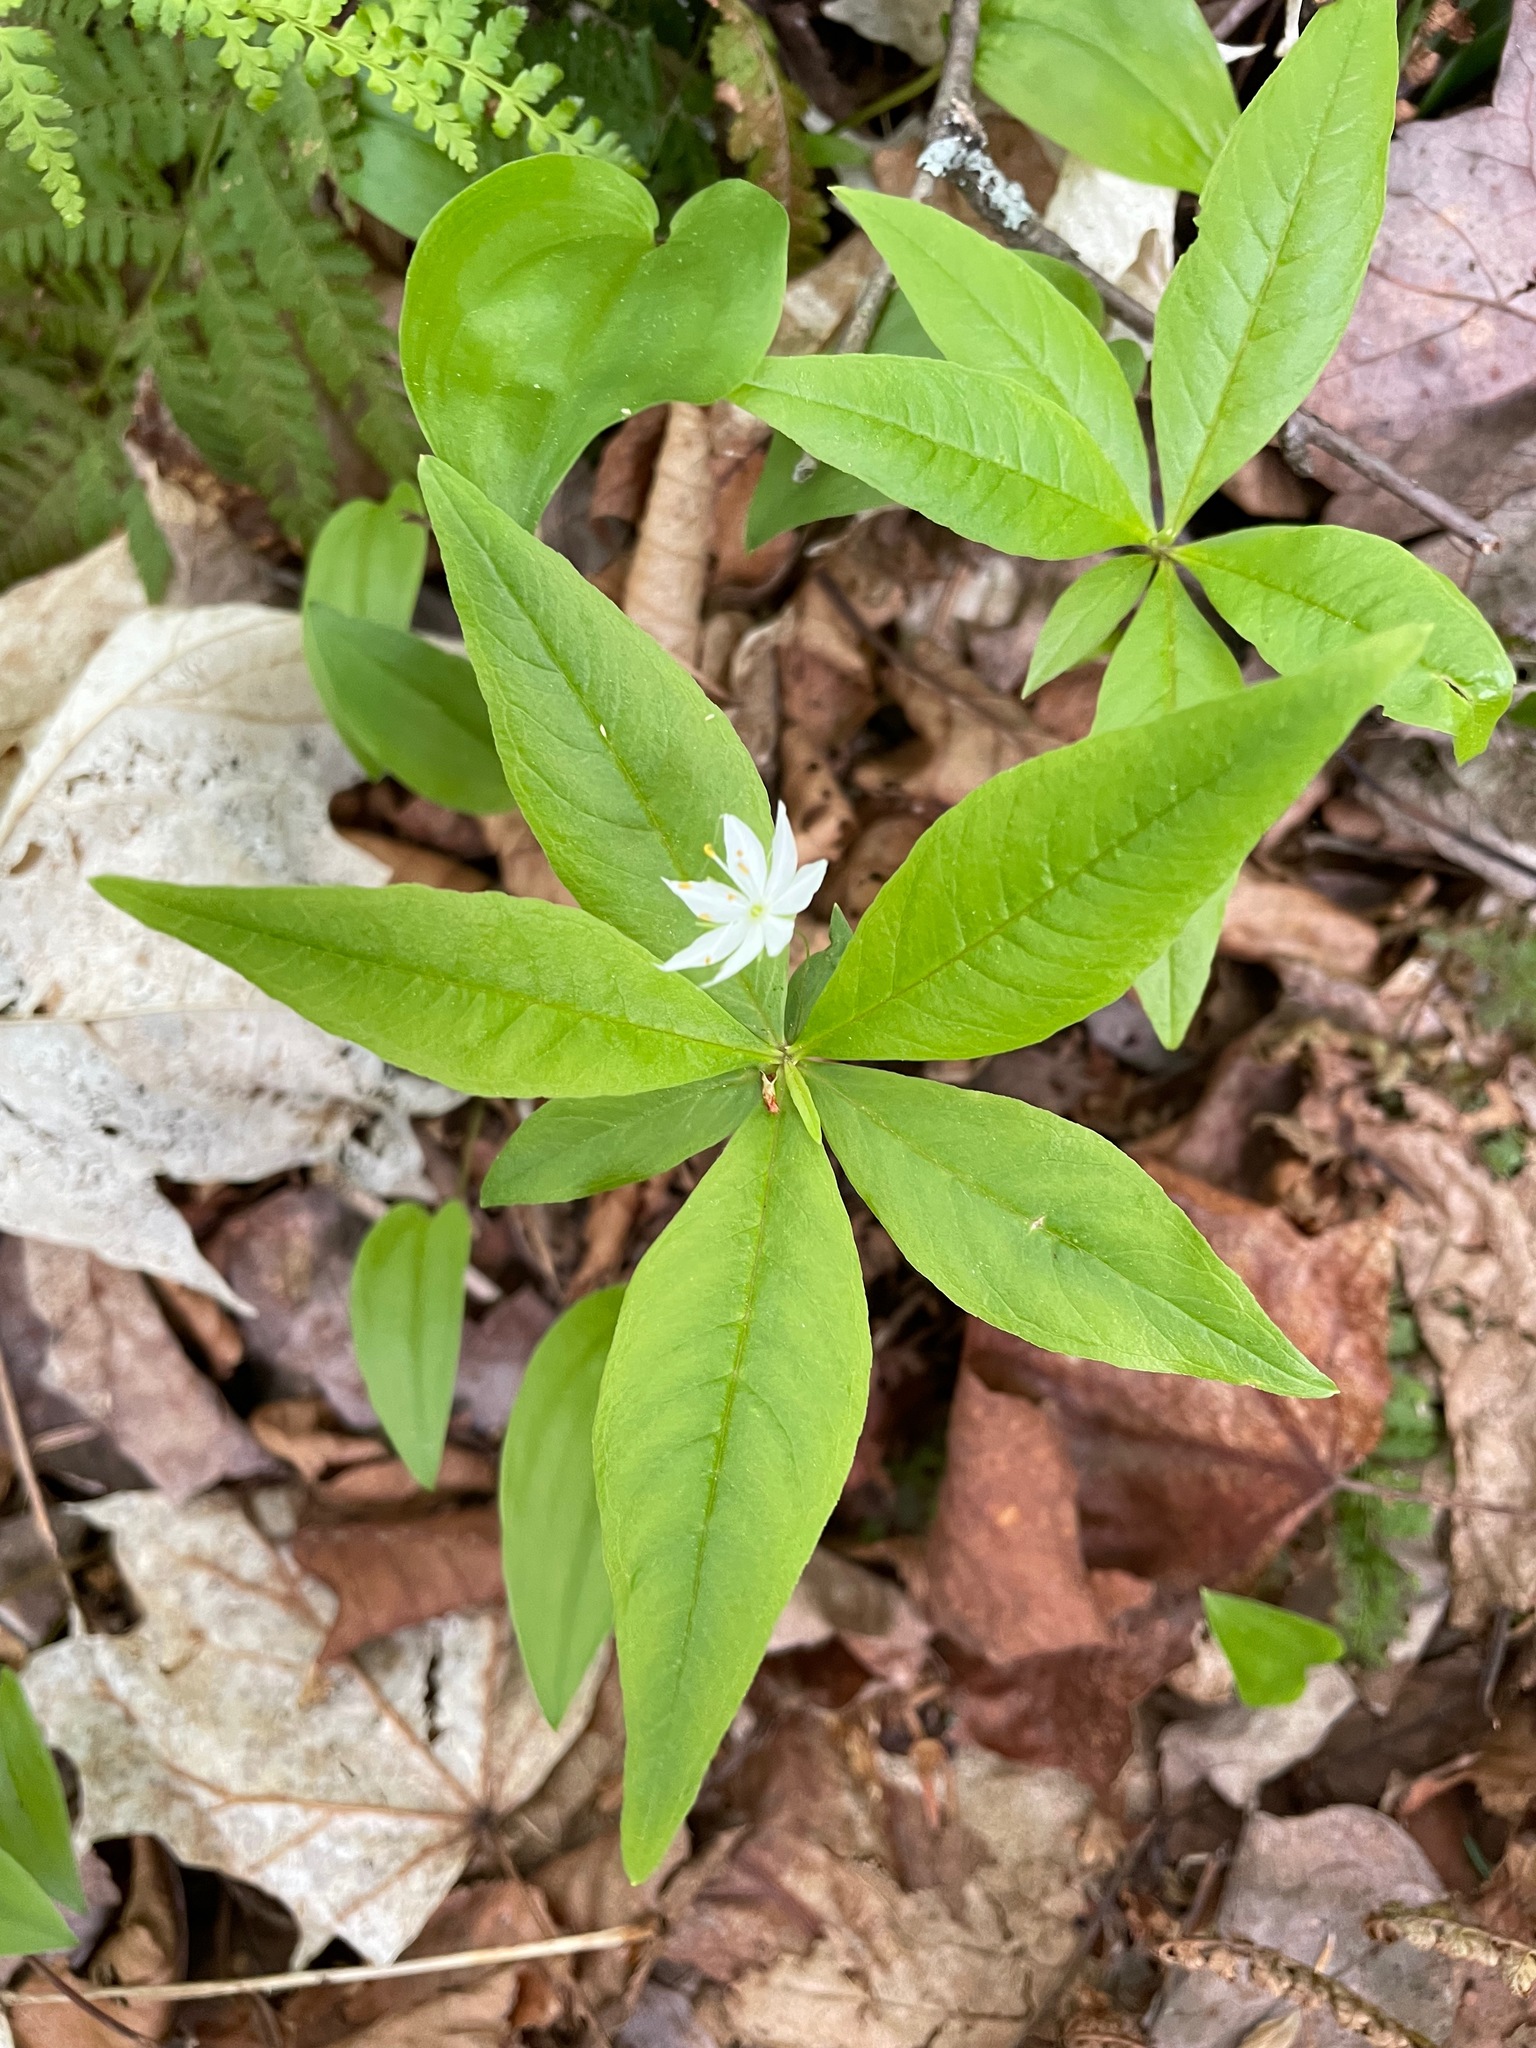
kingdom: Plantae
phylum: Tracheophyta
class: Magnoliopsida
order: Ericales
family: Primulaceae
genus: Lysimachia
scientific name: Lysimachia borealis
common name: American starflower
